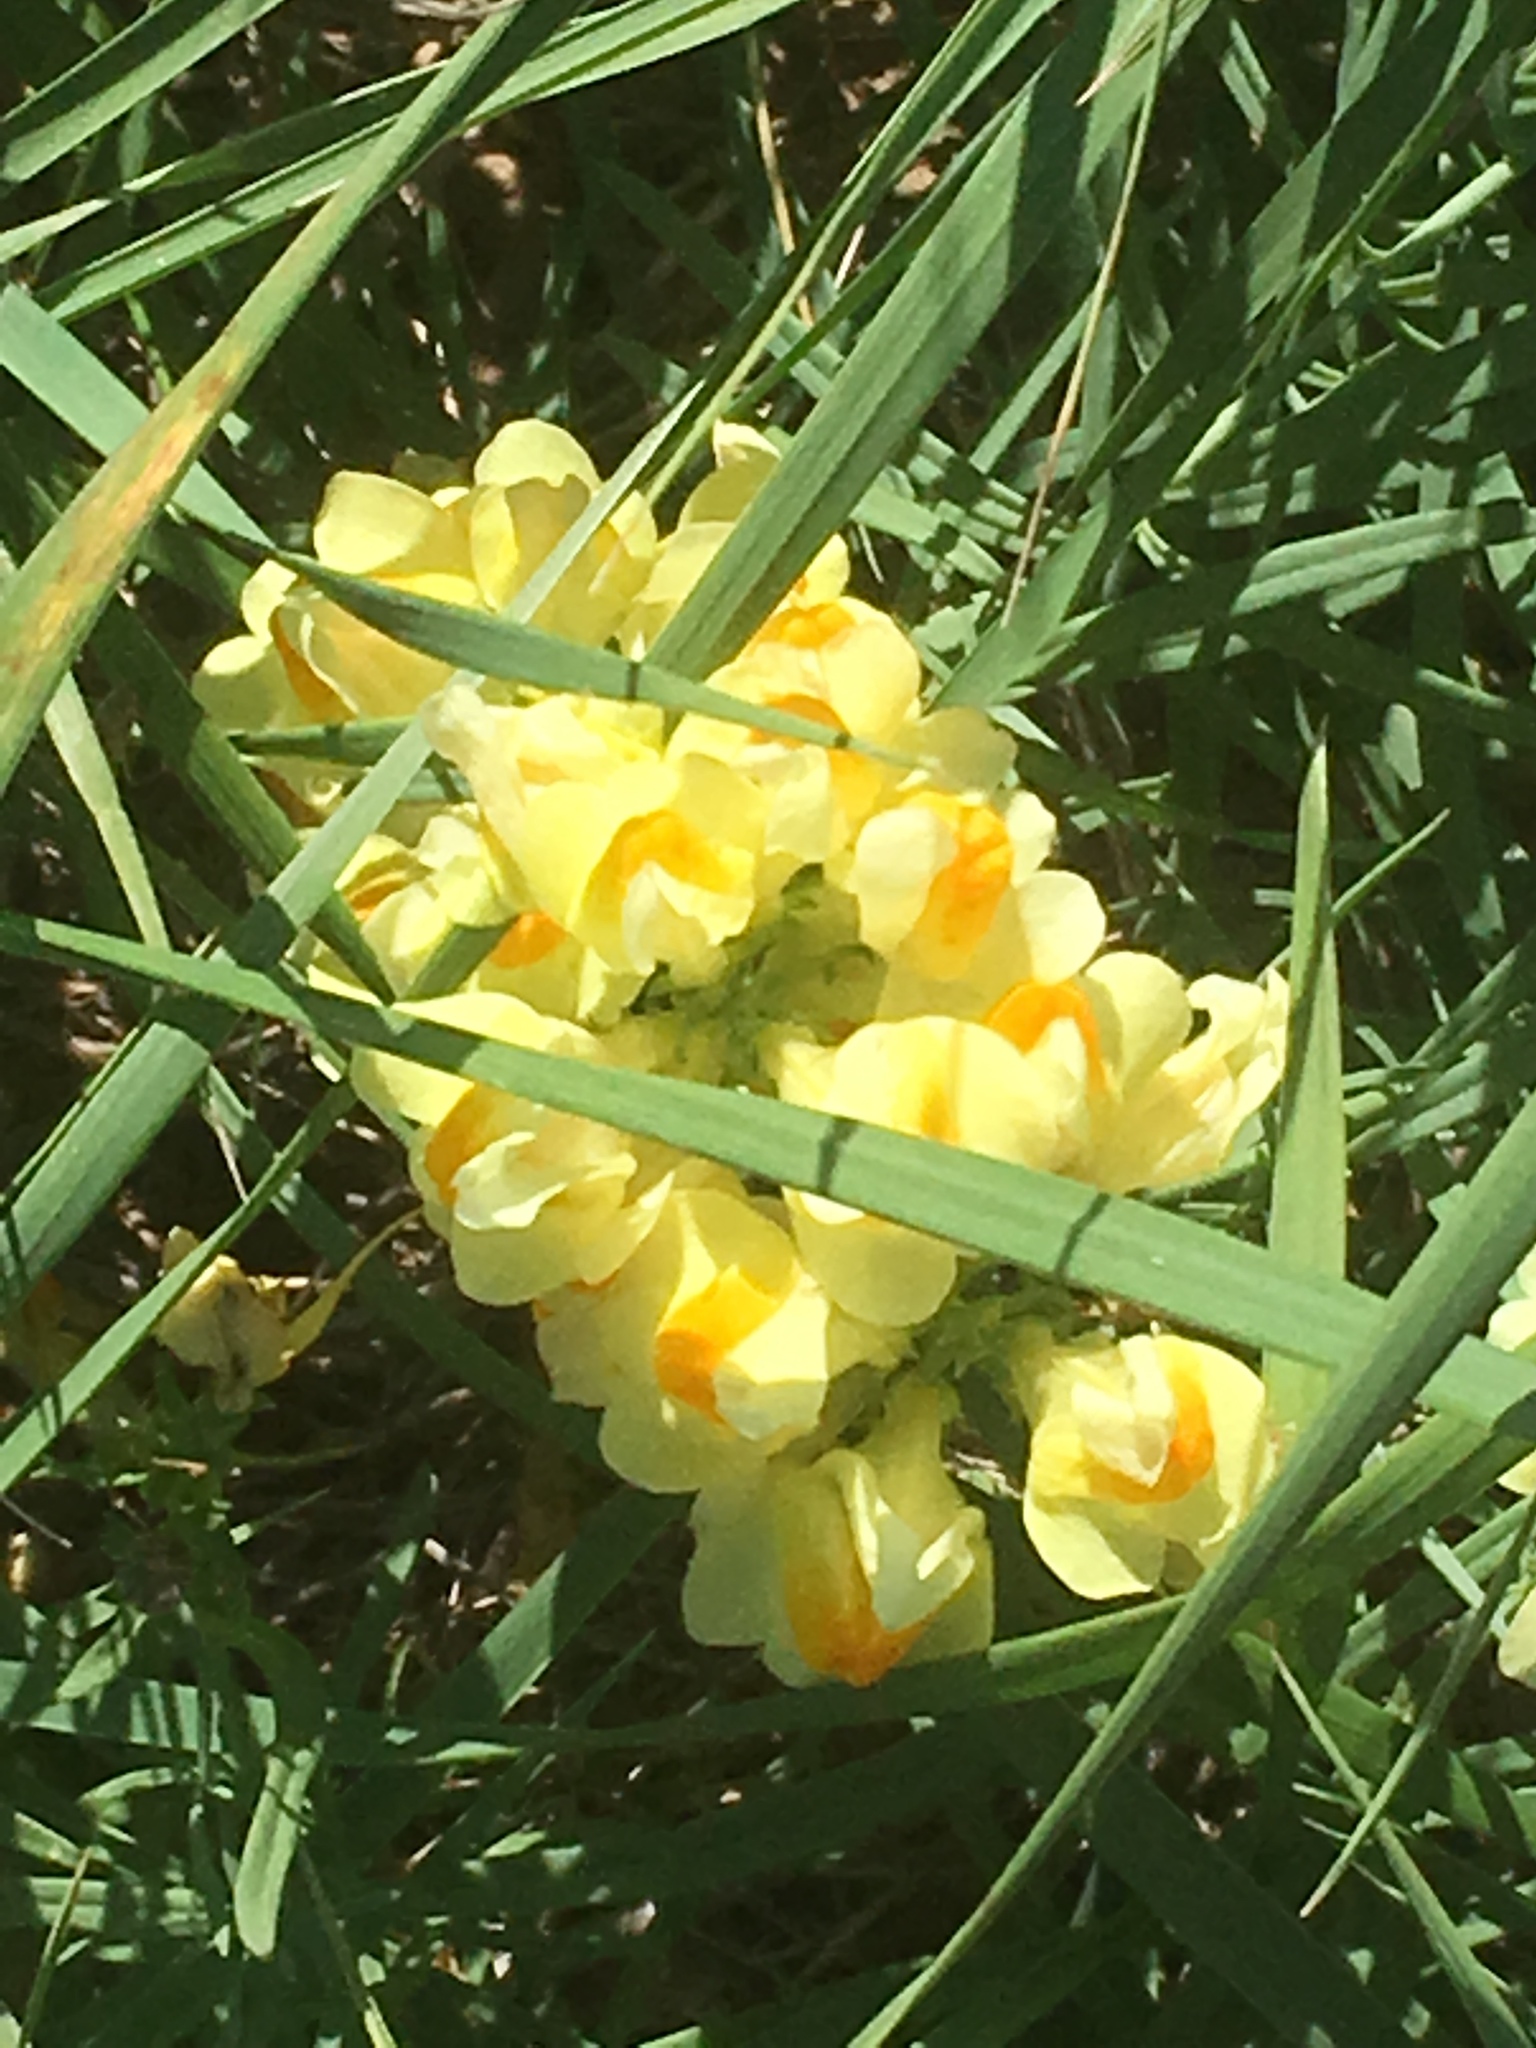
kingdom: Plantae
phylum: Tracheophyta
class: Magnoliopsida
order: Lamiales
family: Plantaginaceae
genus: Linaria
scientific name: Linaria vulgaris
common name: Butter and eggs
